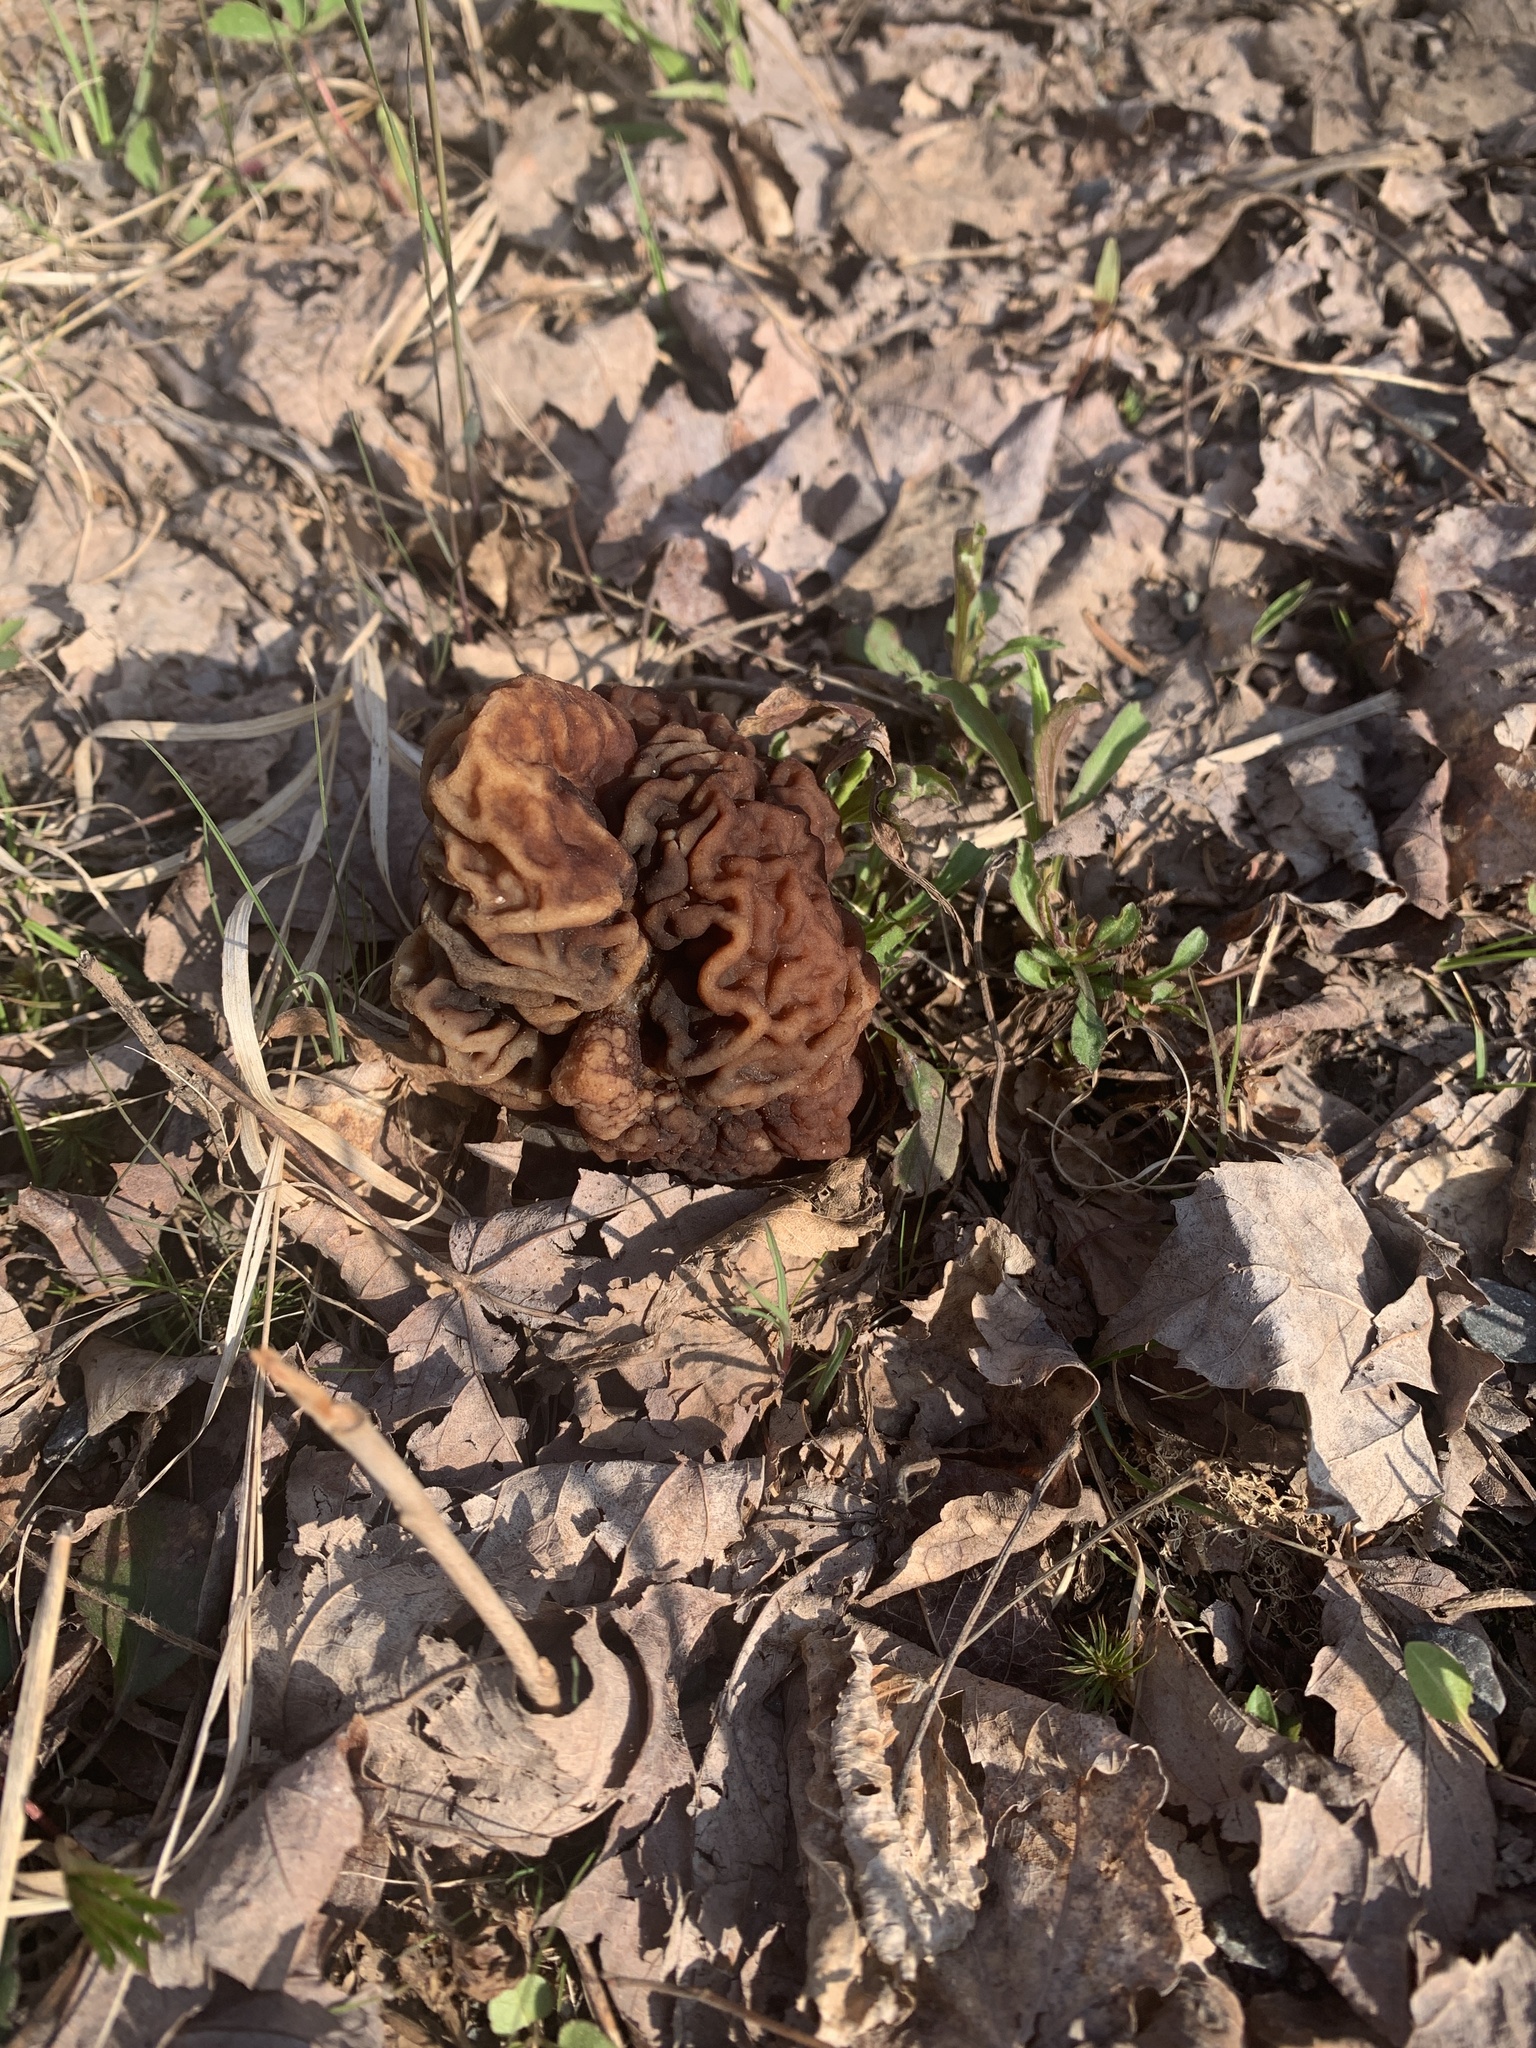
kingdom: Fungi
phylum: Ascomycota
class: Pezizomycetes
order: Pezizales
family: Discinaceae
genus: Gyromitra
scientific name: Gyromitra esculenta
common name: False morel
